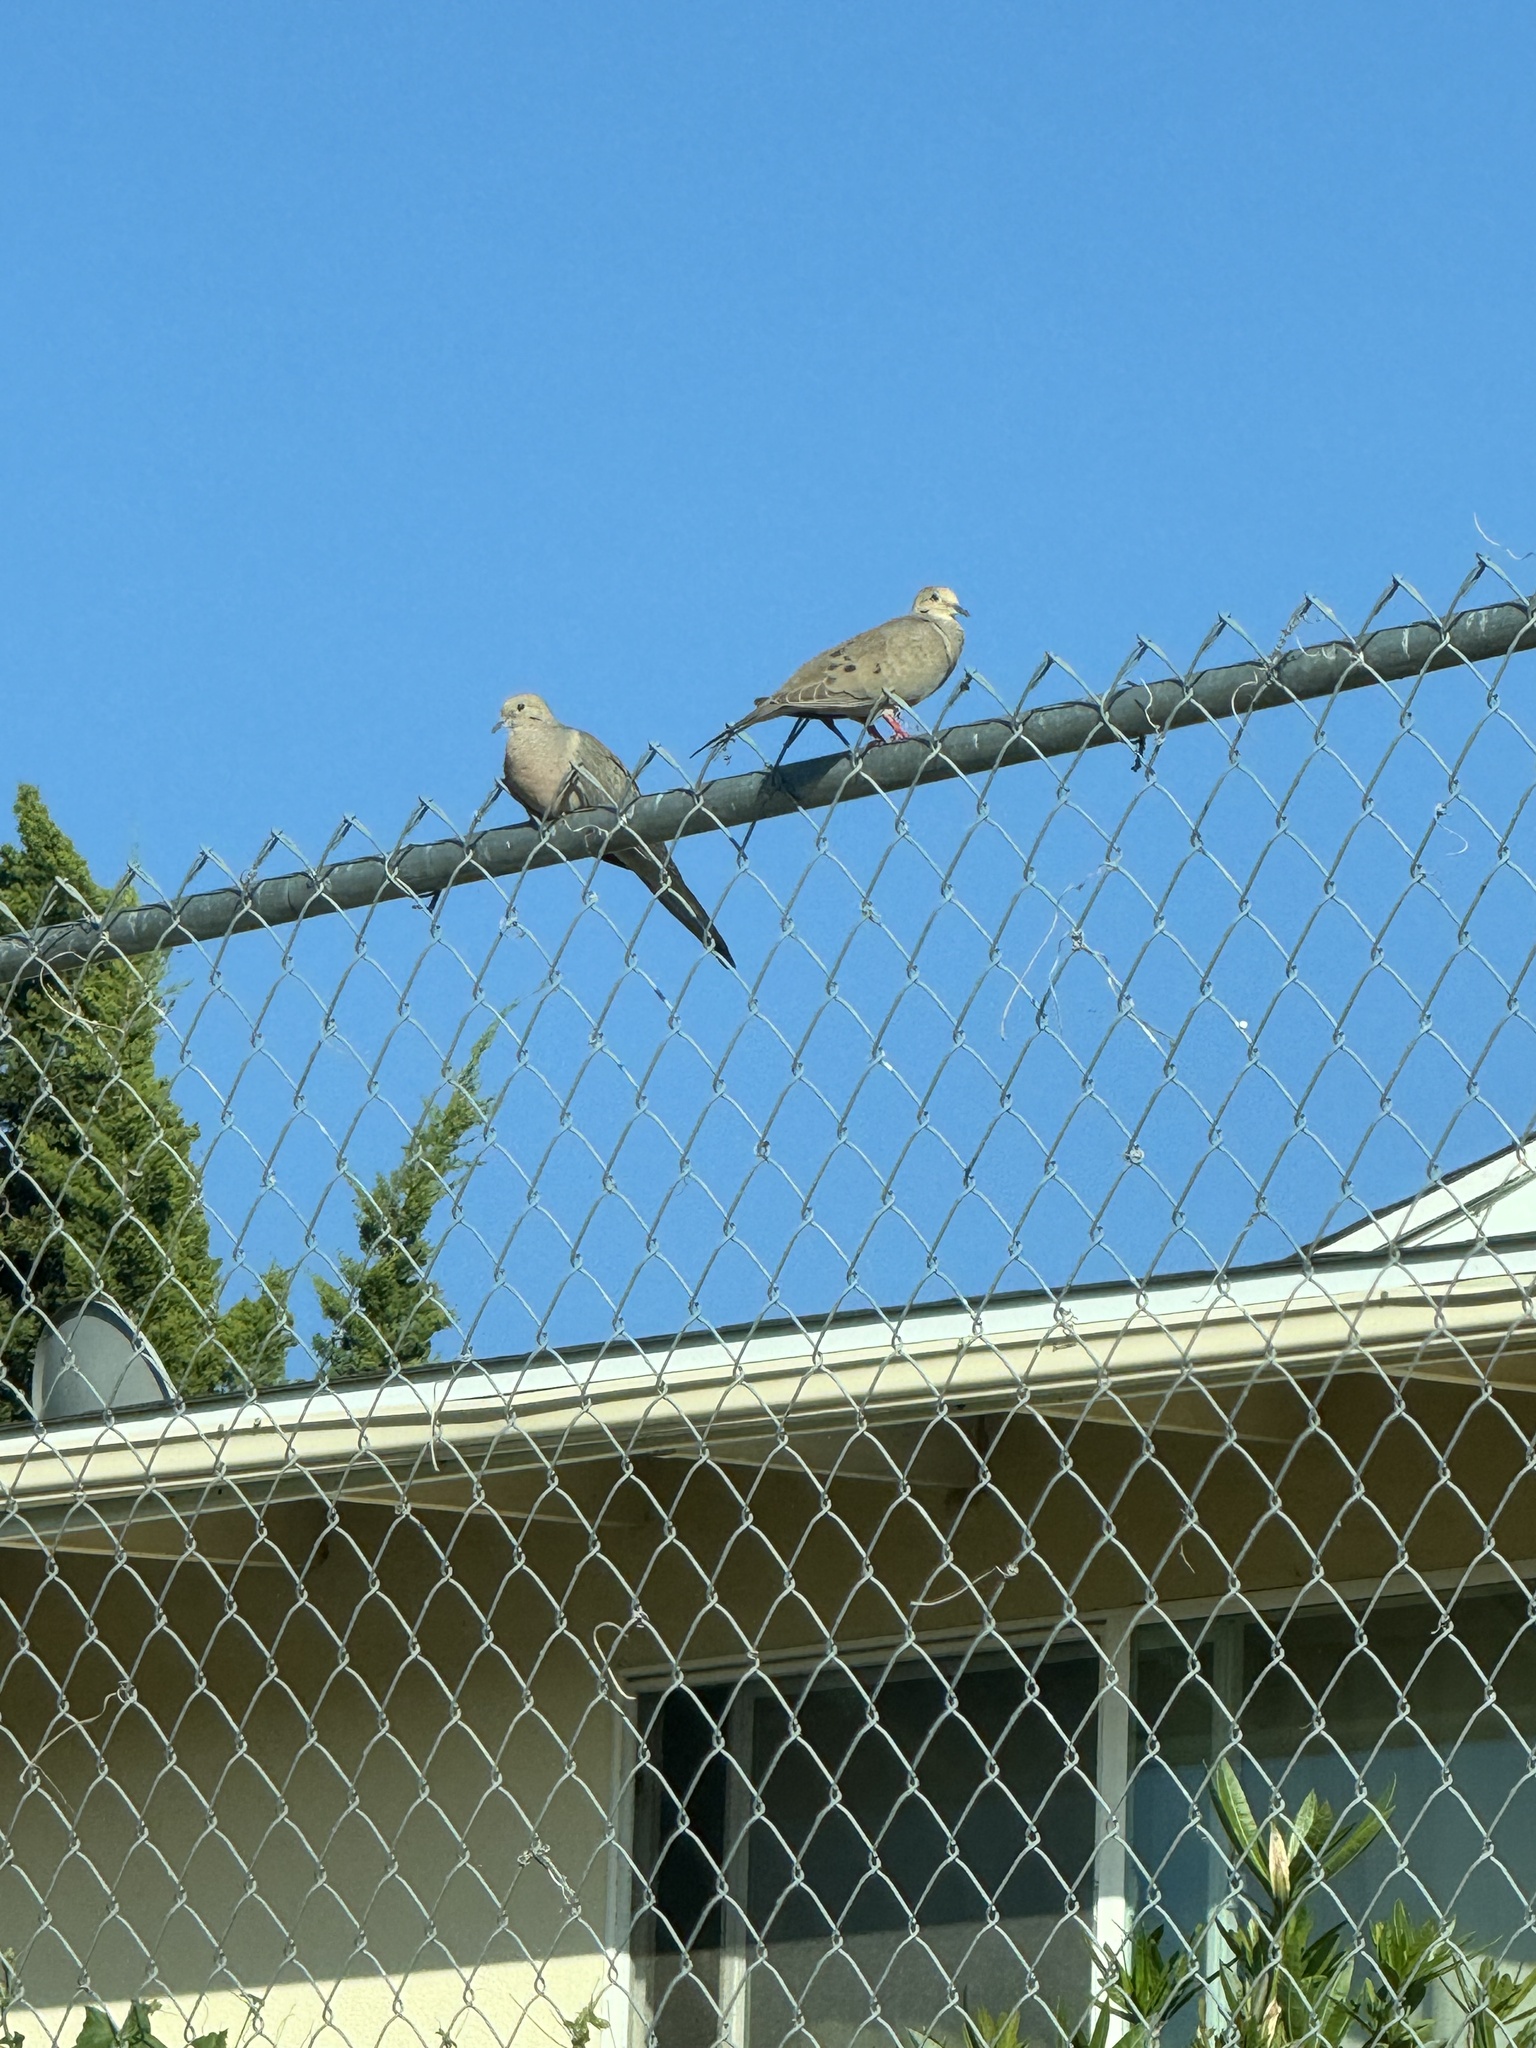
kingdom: Animalia
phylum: Chordata
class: Aves
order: Columbiformes
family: Columbidae
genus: Zenaida
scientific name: Zenaida macroura
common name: Mourning dove
